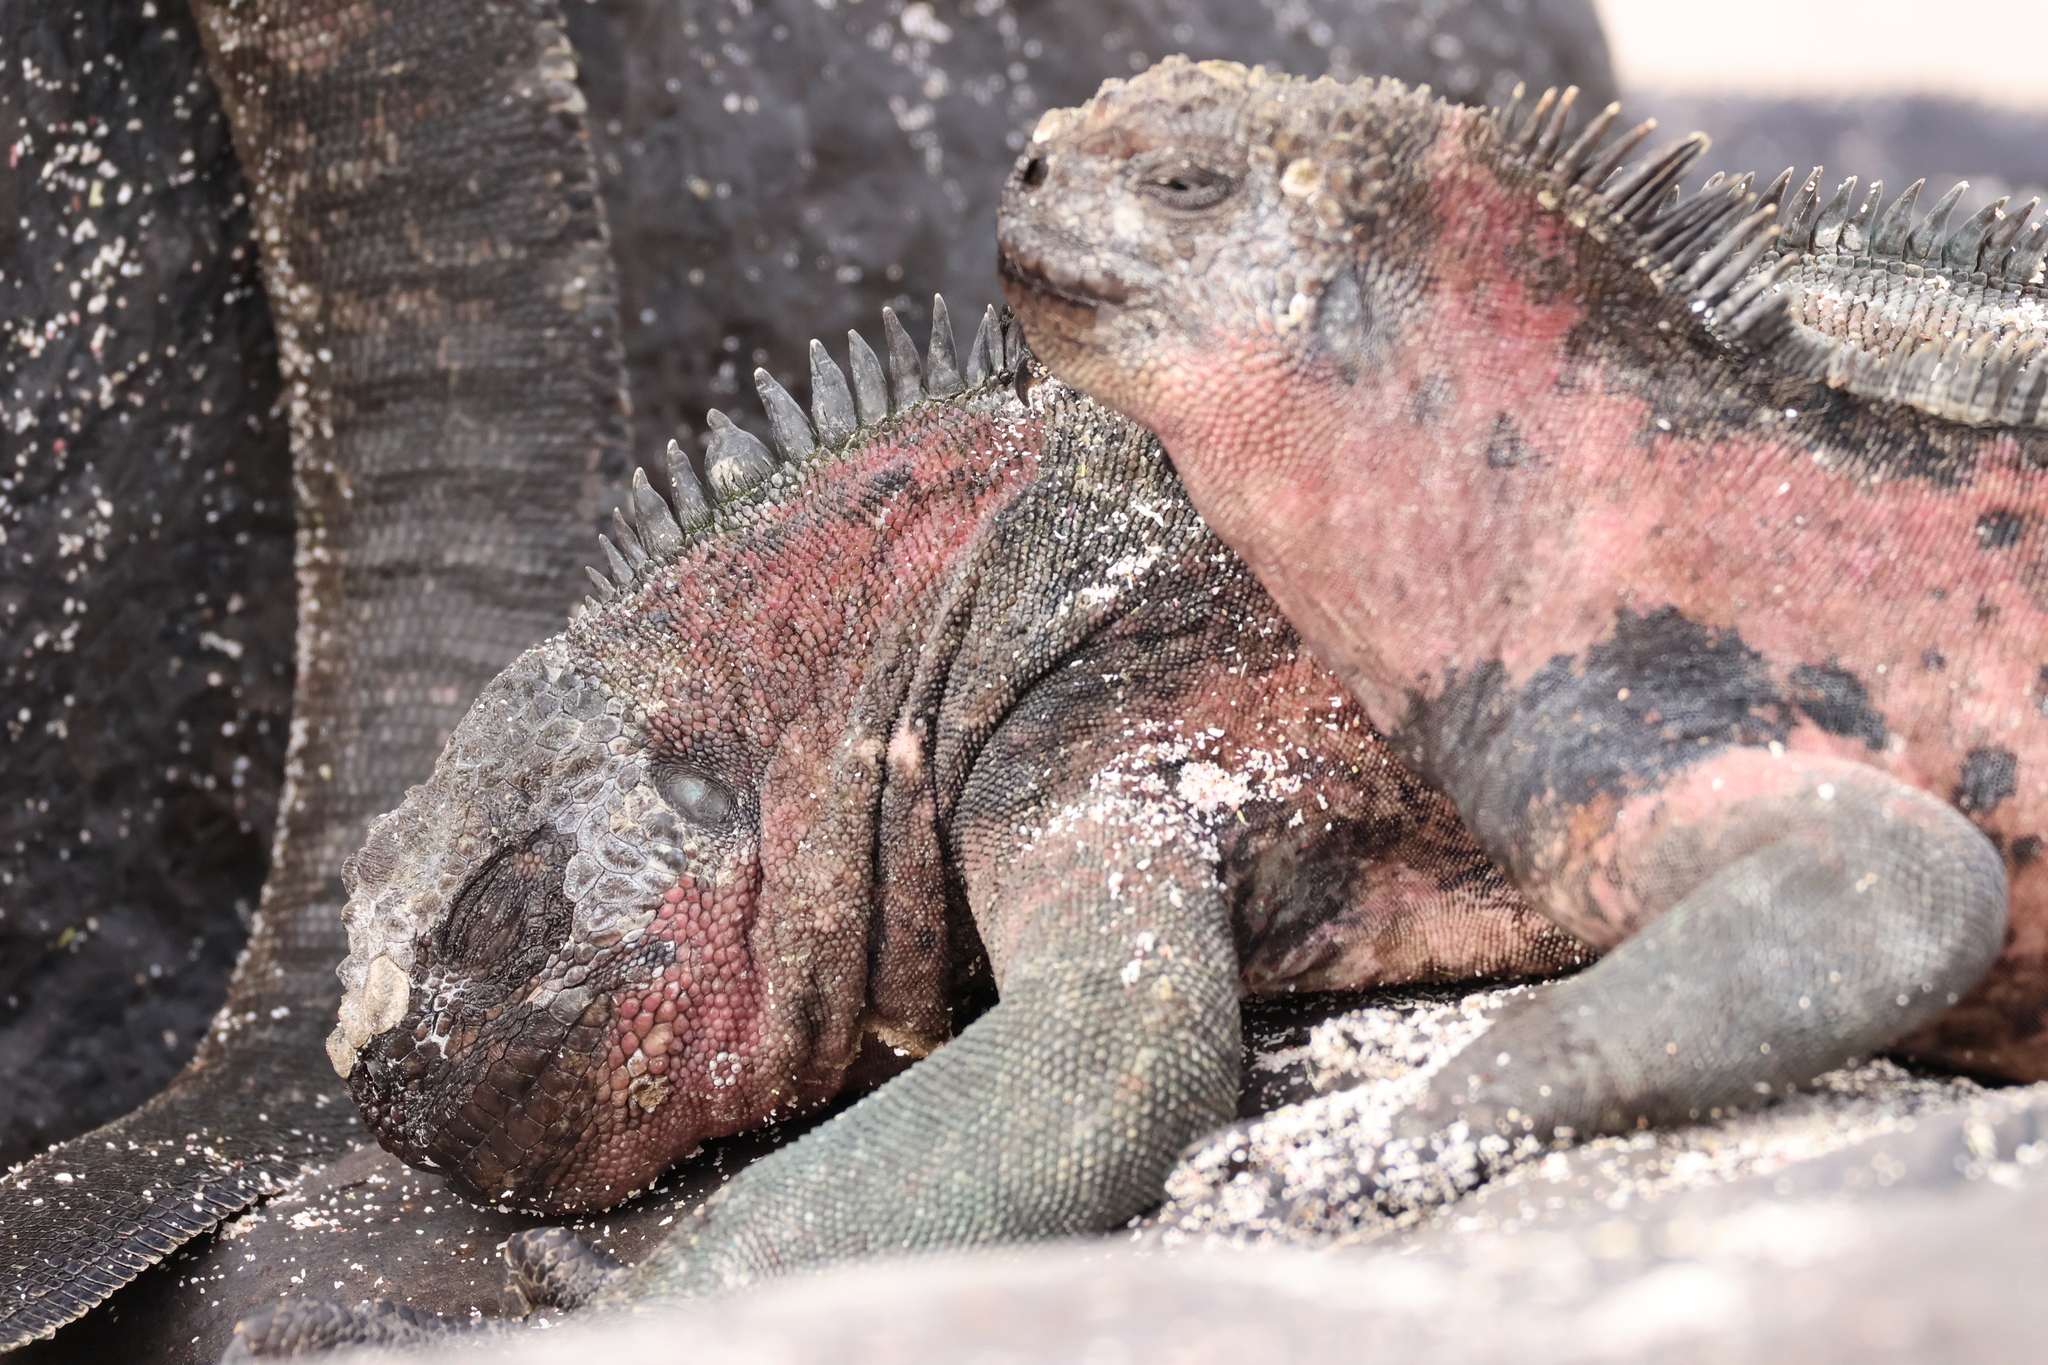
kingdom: Animalia
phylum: Chordata
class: Squamata
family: Iguanidae
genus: Amblyrhynchus
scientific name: Amblyrhynchus cristatus
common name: Marine iguana
